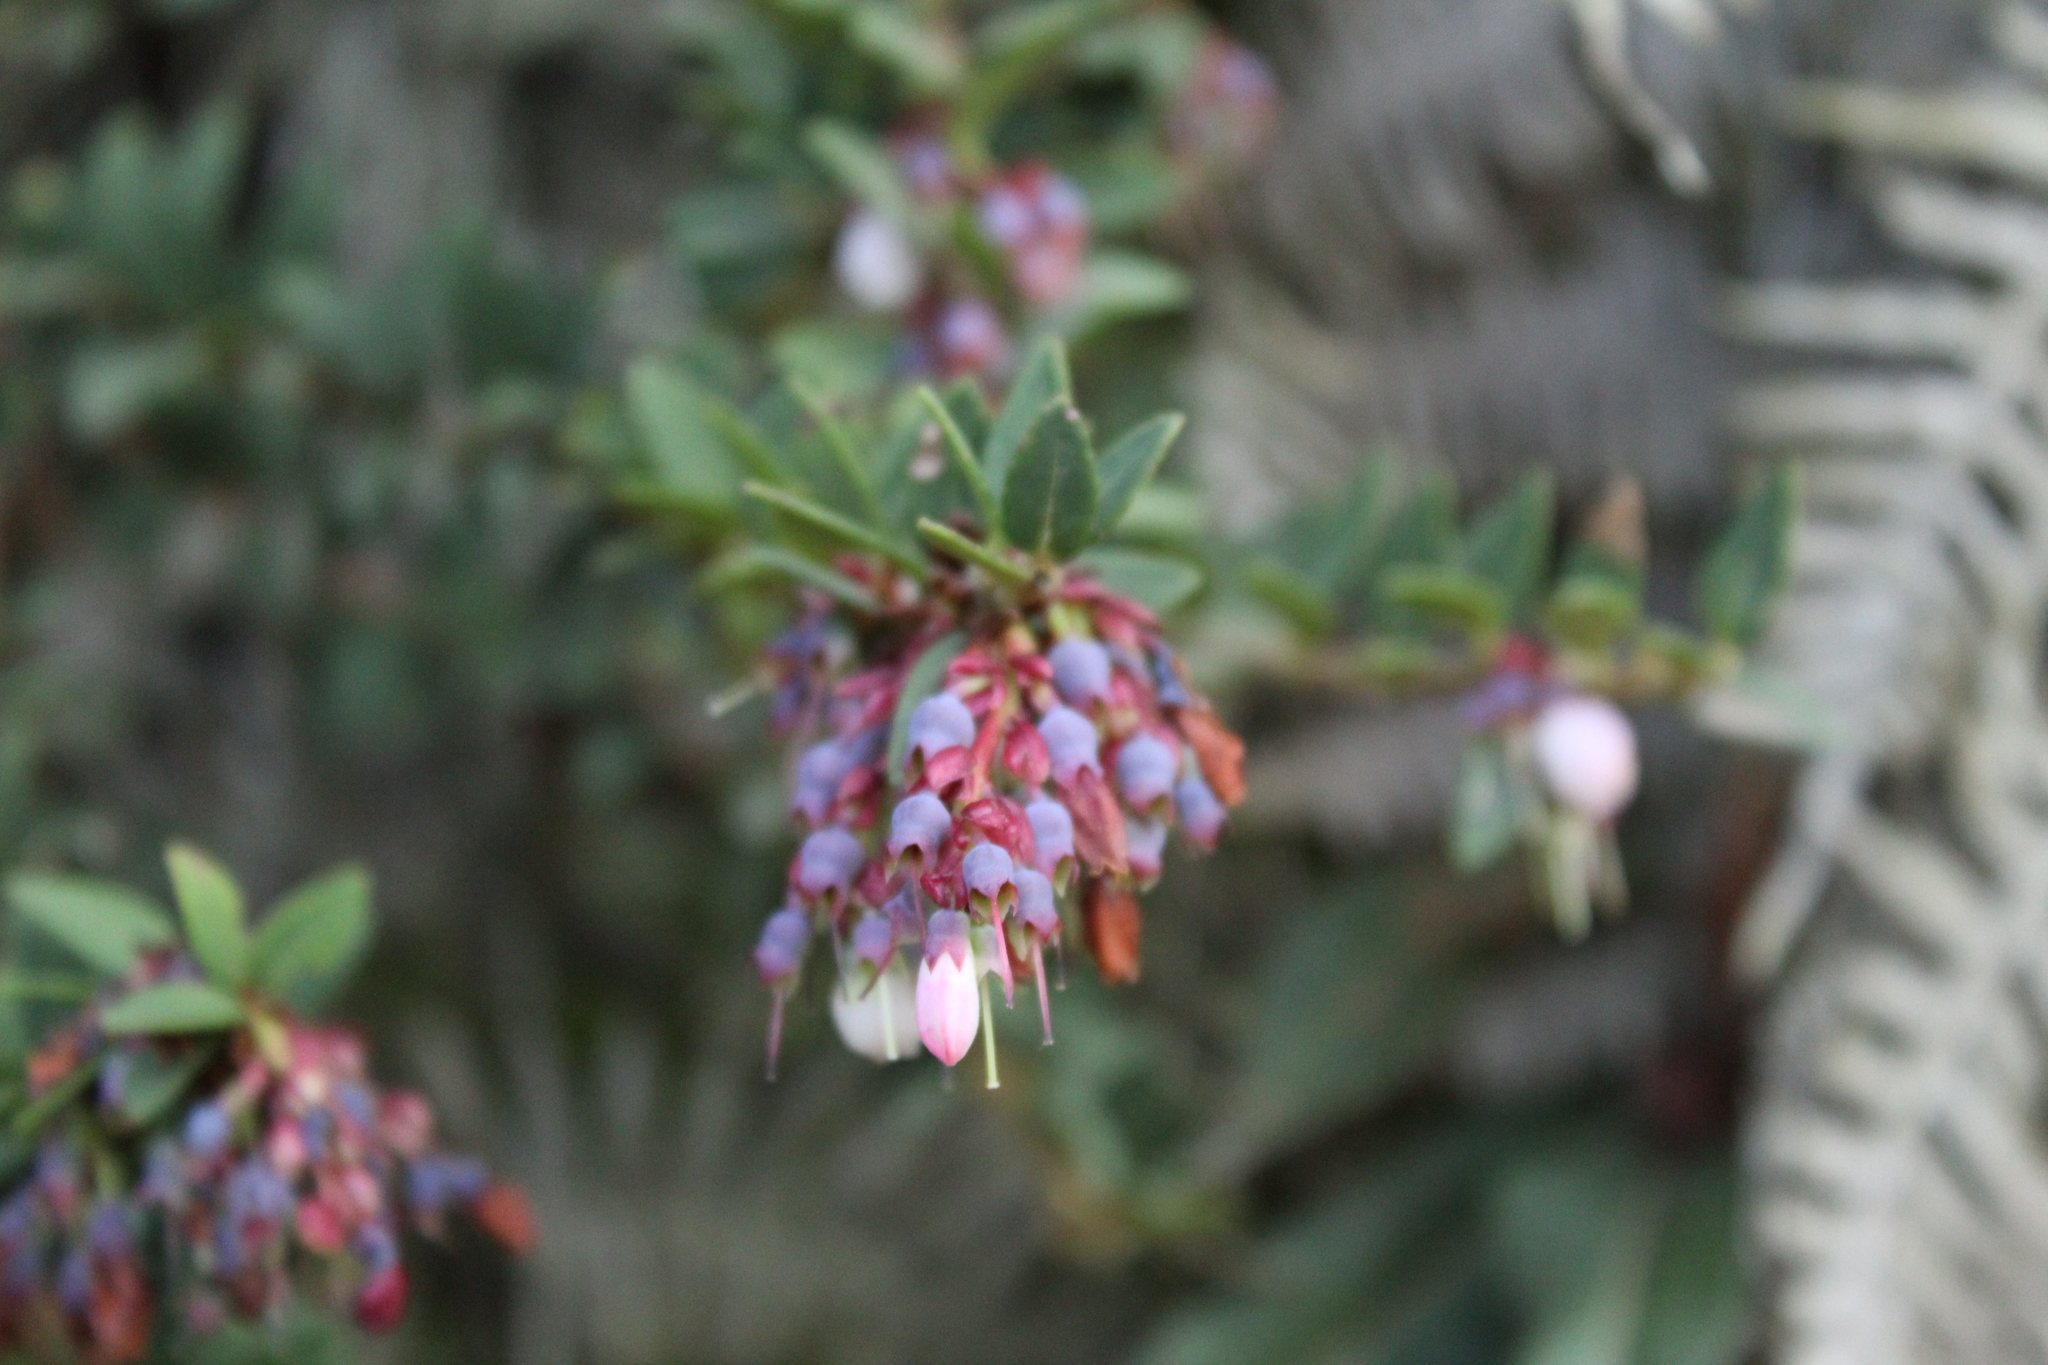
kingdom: Plantae
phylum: Tracheophyta
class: Magnoliopsida
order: Ericales
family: Ericaceae
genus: Vaccinium
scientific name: Vaccinium floribundum
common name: Colombian blueberry
